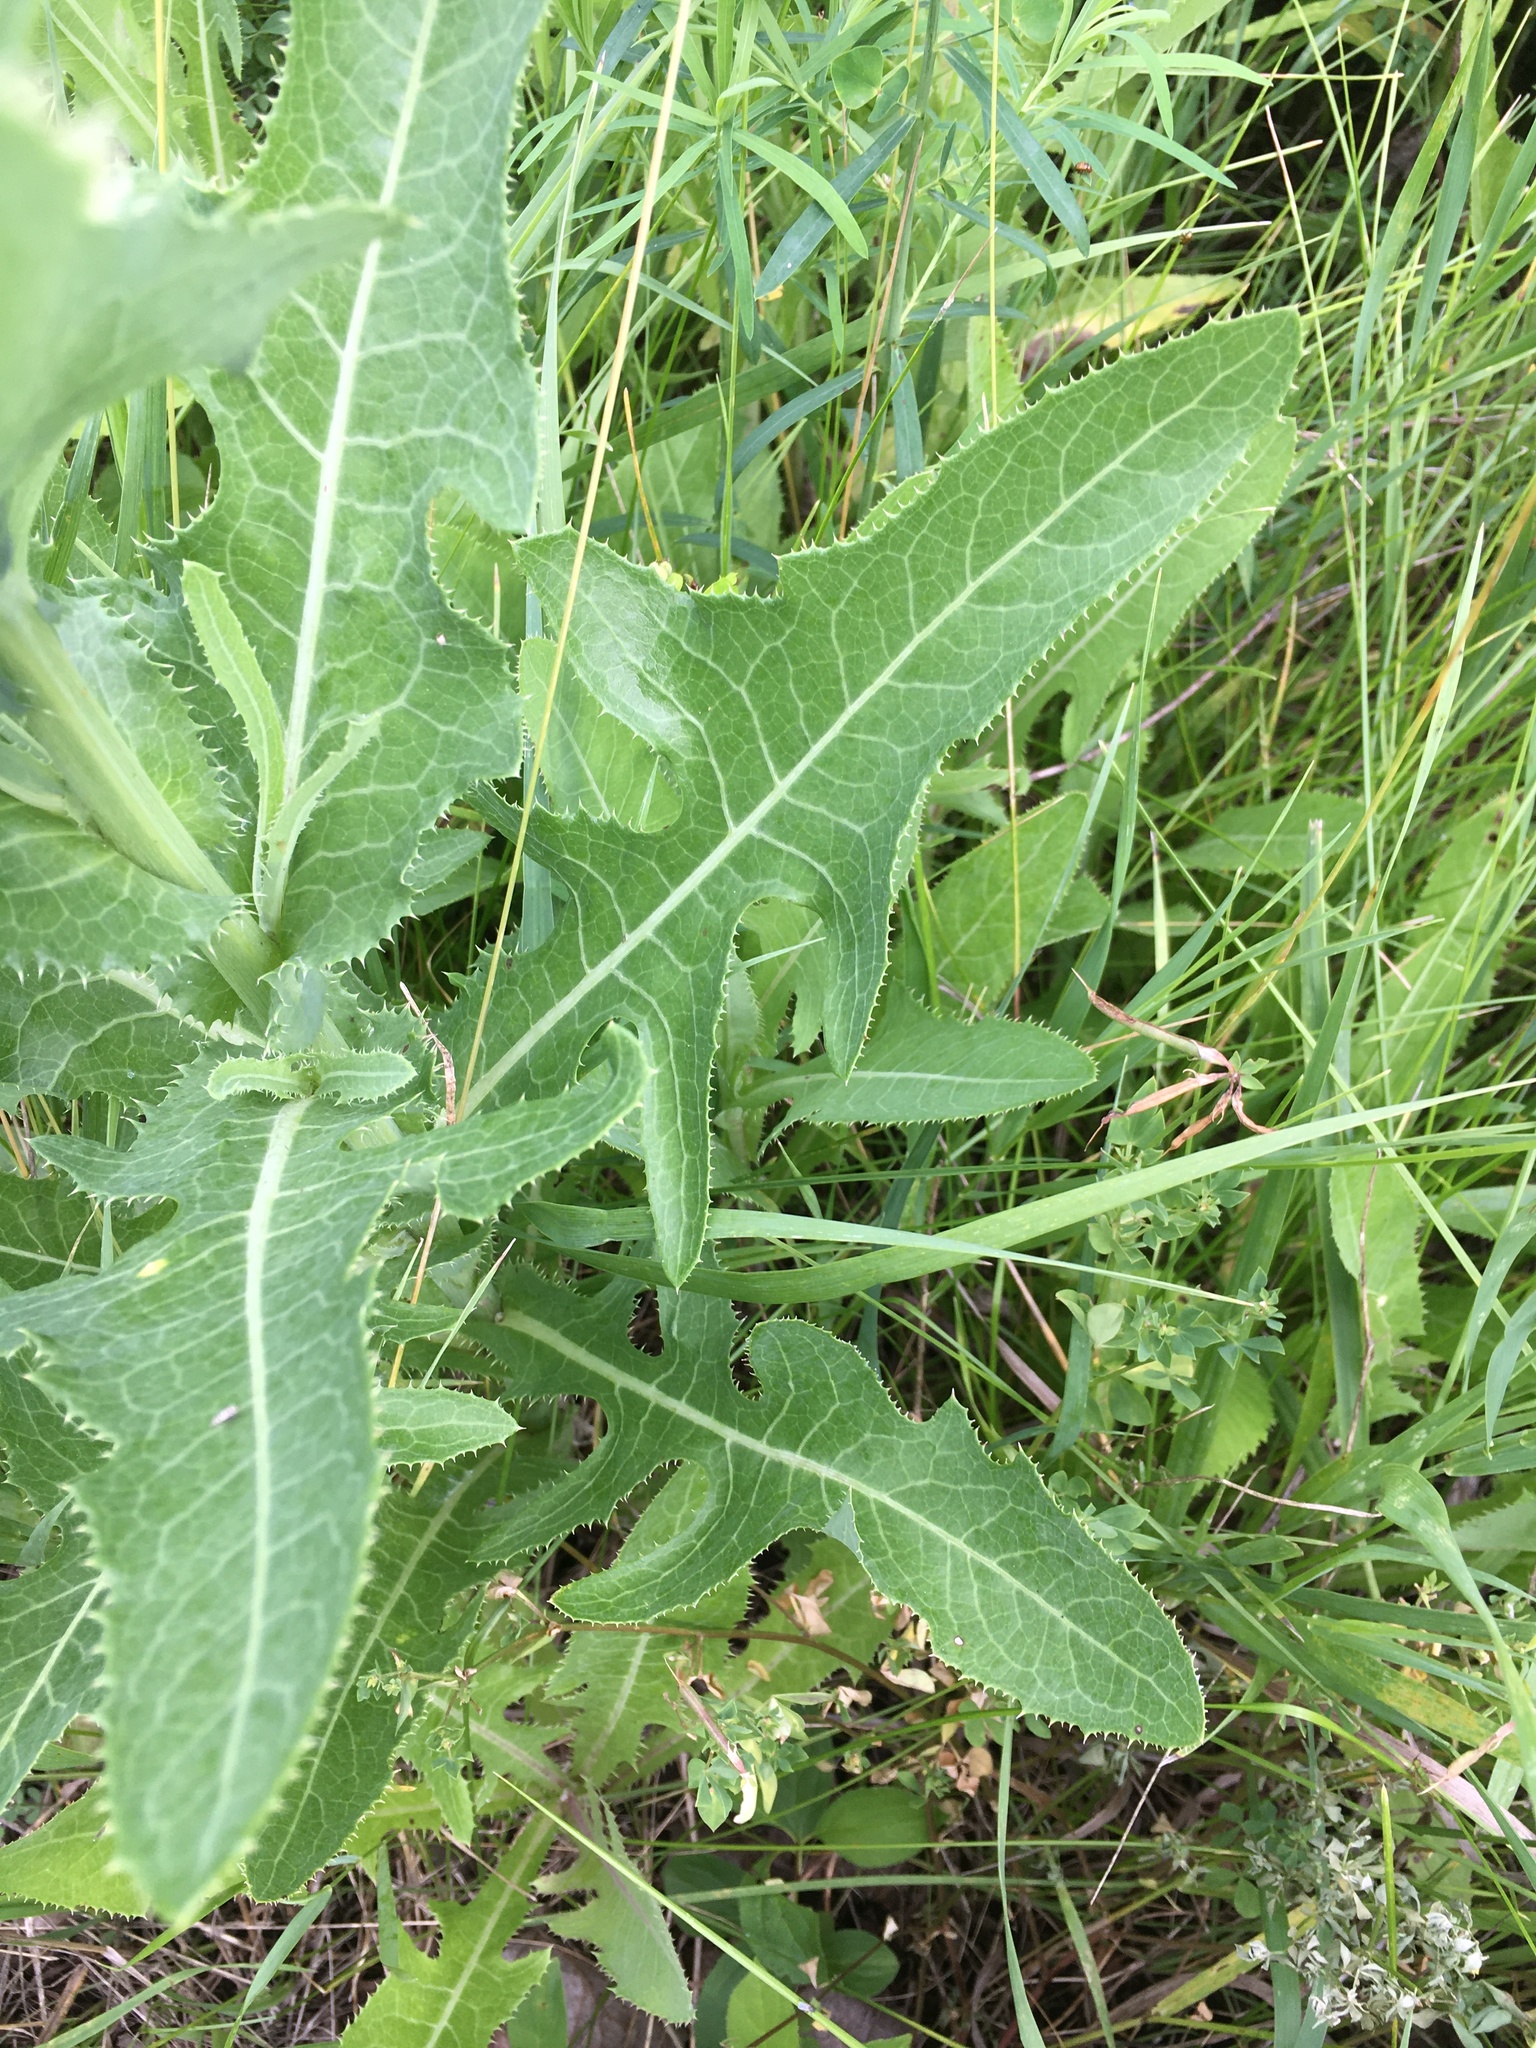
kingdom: Plantae
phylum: Tracheophyta
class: Magnoliopsida
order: Asterales
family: Asteraceae
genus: Sonchus
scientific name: Sonchus arvensis
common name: Perennial sow-thistle
